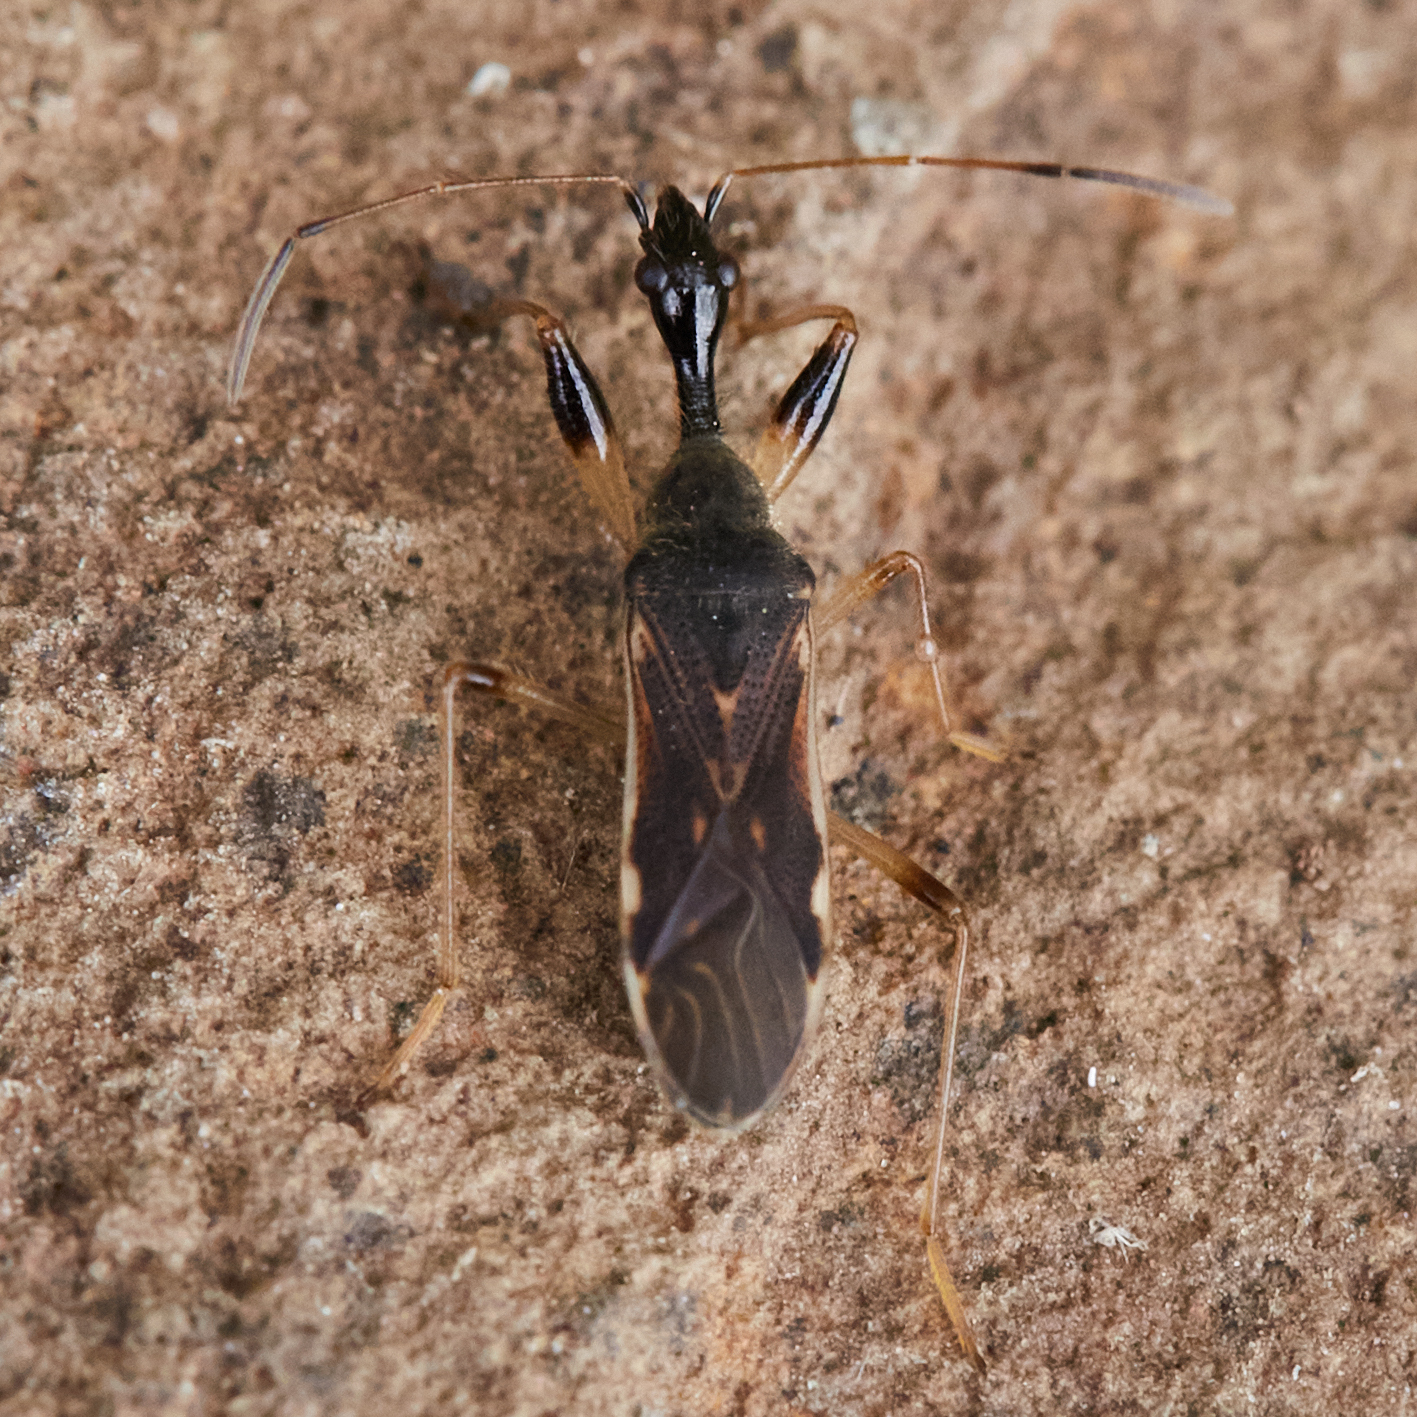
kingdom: Animalia
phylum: Arthropoda
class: Insecta
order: Hemiptera
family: Rhyparochromidae
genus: Myodocha
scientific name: Myodocha serripes
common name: Long-necked seed bug
